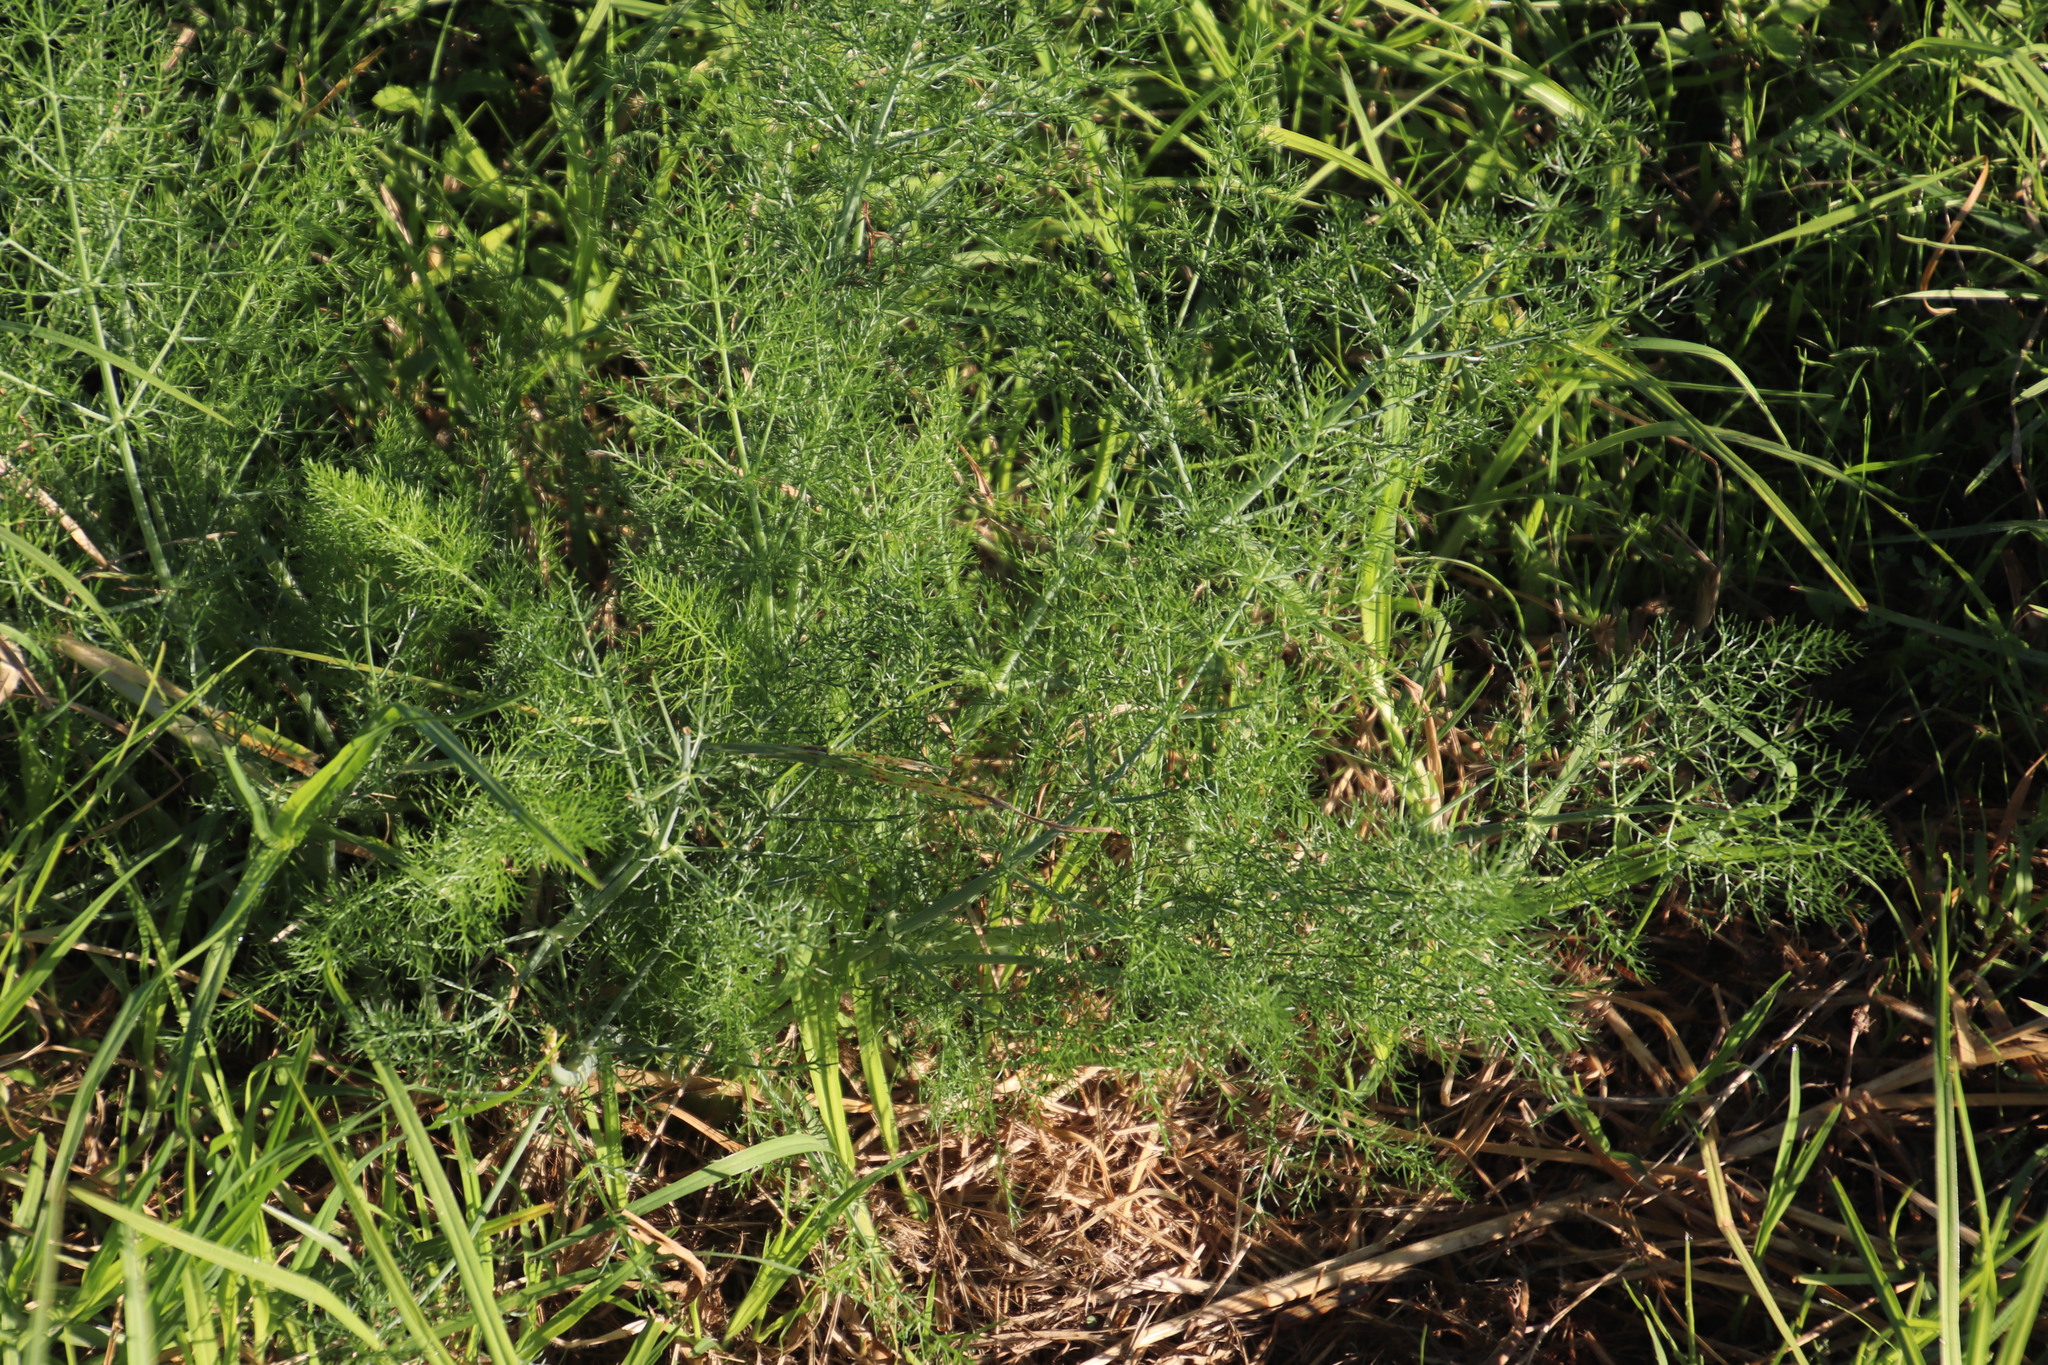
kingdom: Plantae
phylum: Tracheophyta
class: Magnoliopsida
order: Apiales
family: Apiaceae
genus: Foeniculum
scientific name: Foeniculum vulgare
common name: Fennel
